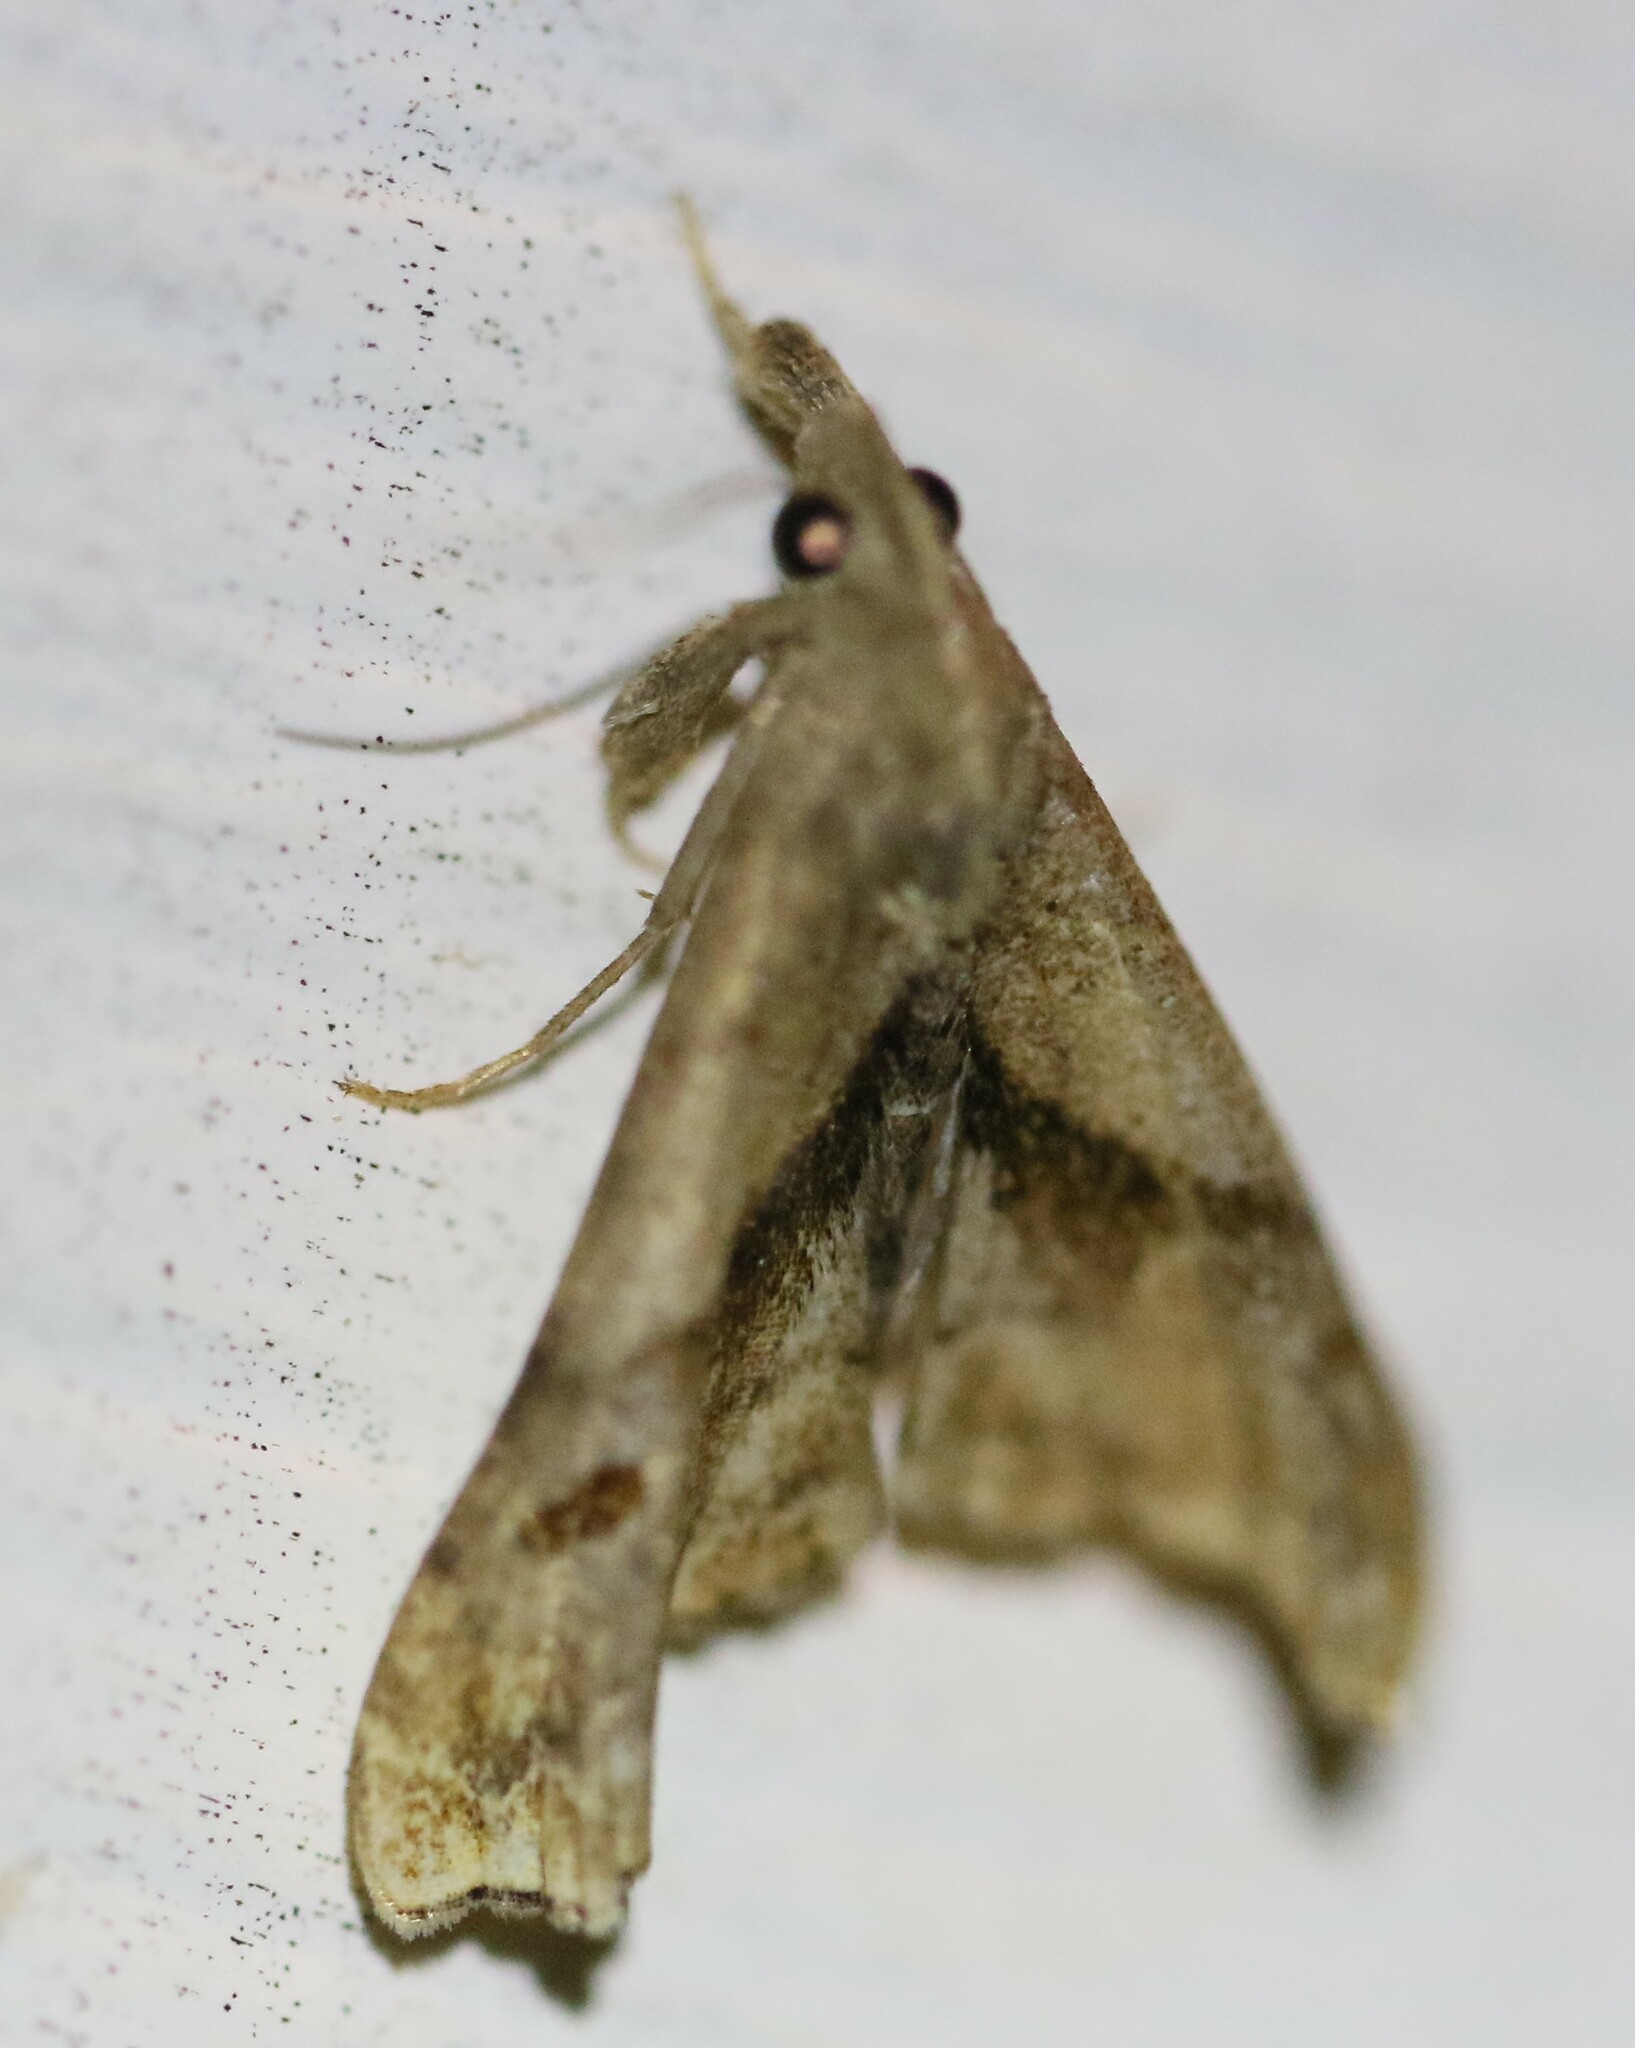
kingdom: Animalia
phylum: Arthropoda
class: Insecta
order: Lepidoptera
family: Erebidae
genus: Palthis
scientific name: Palthis angulalis
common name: Dark-spotted palthis moth
